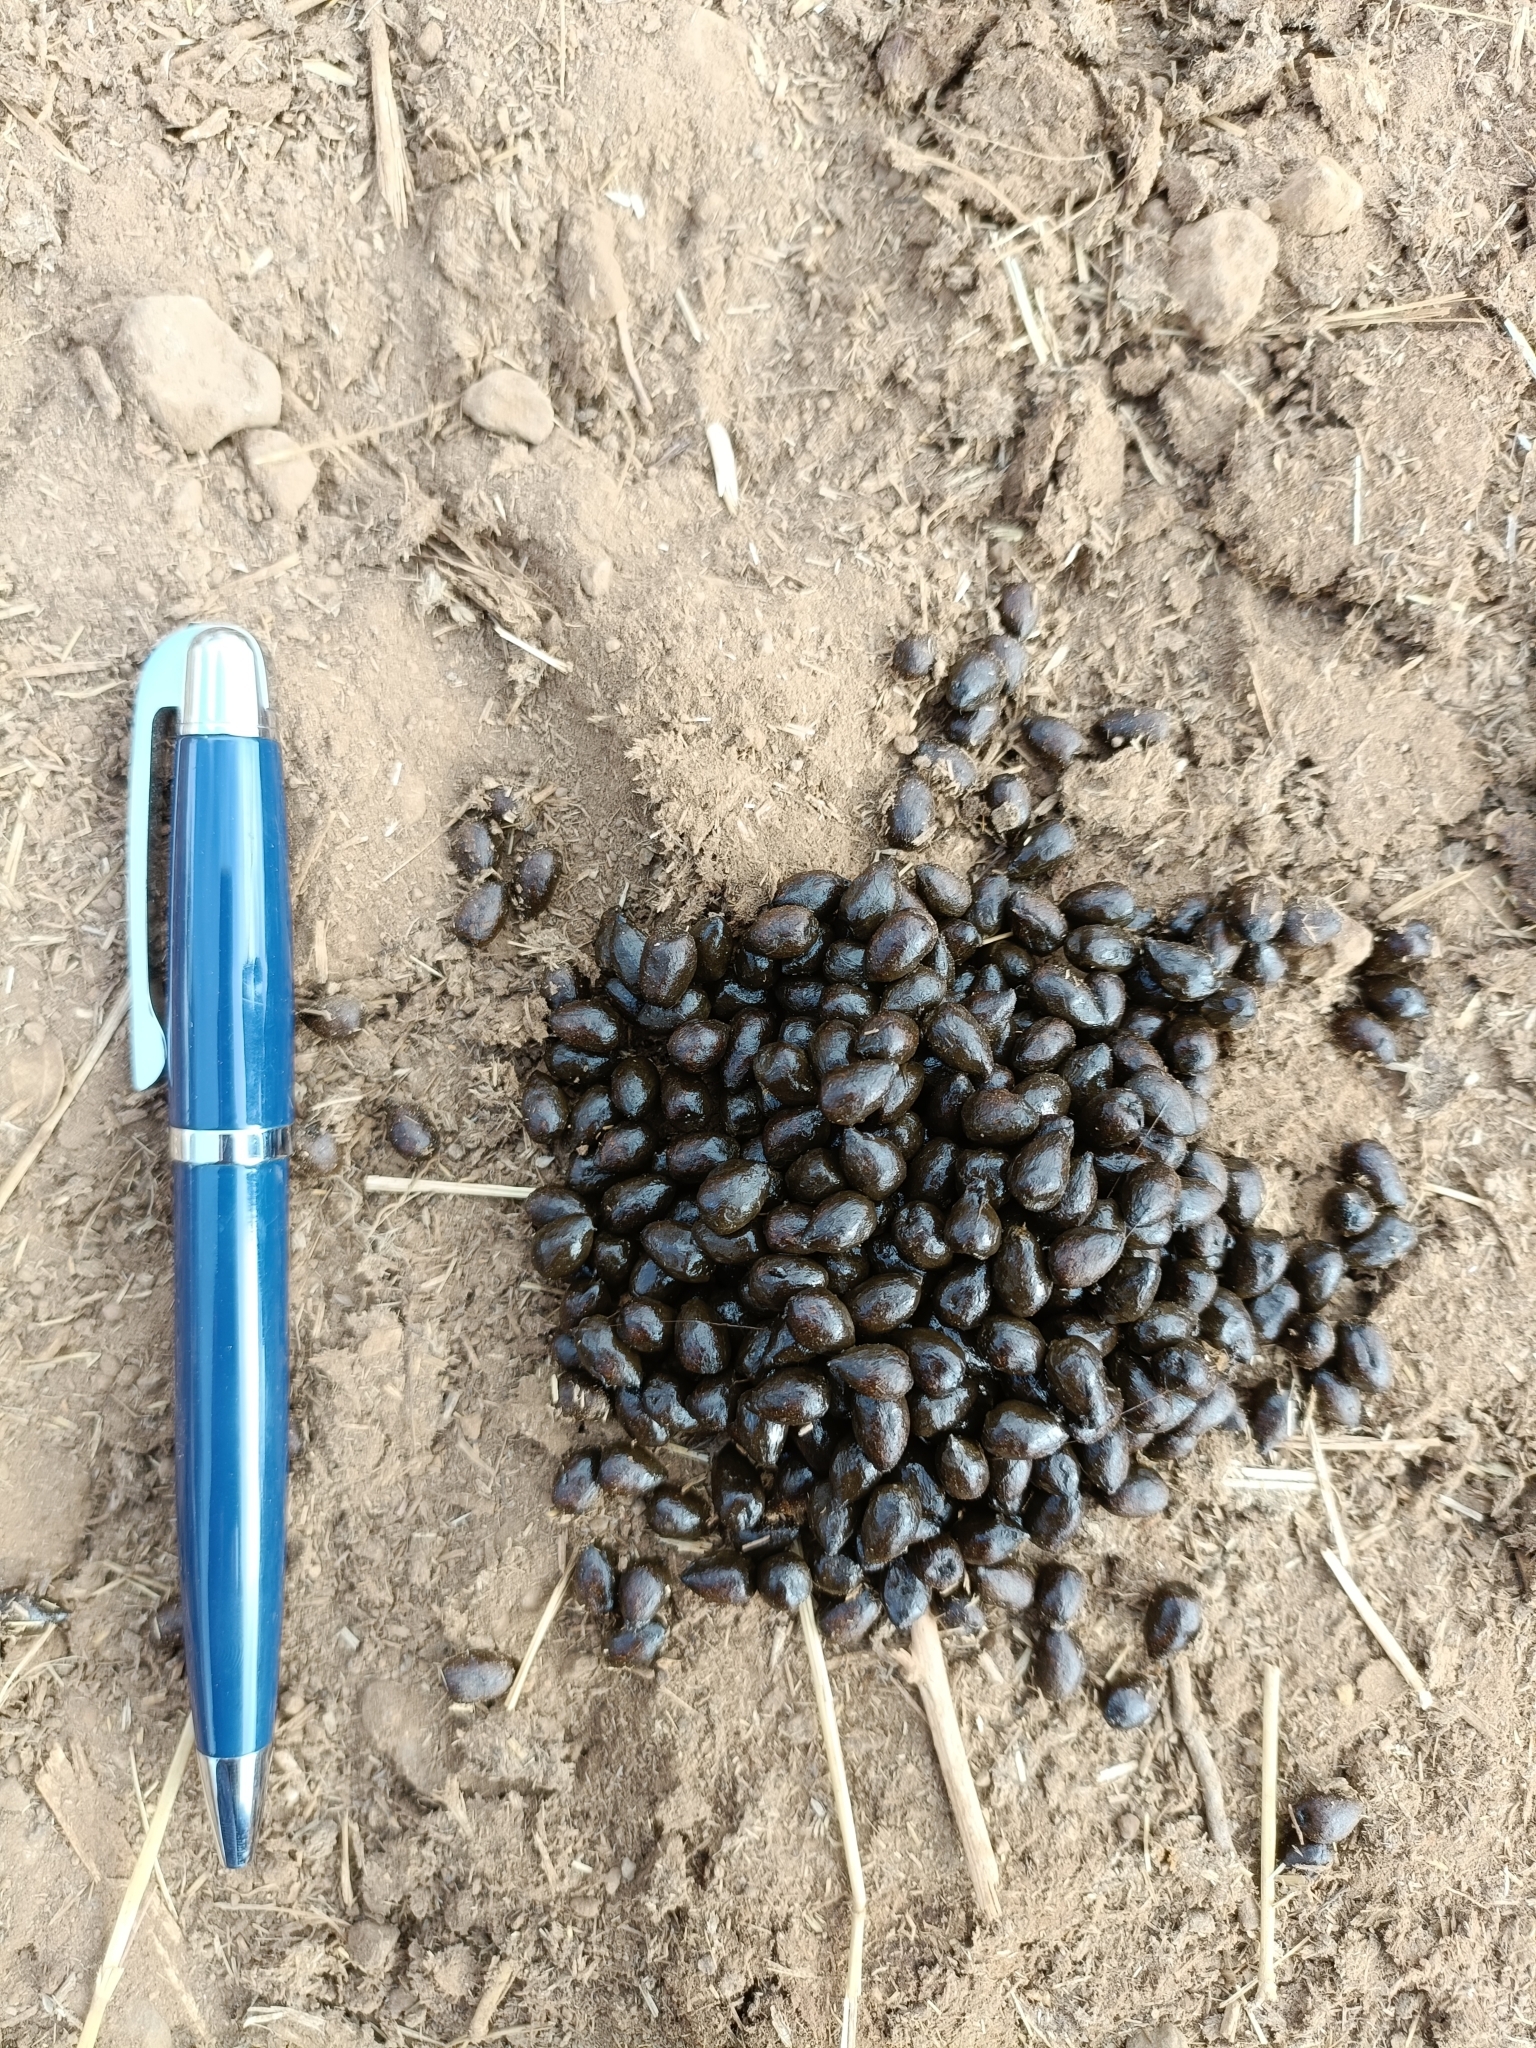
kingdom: Animalia
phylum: Chordata
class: Mammalia
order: Artiodactyla
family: Bovidae
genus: Gazella
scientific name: Gazella bennettii
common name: Indian gazelle
